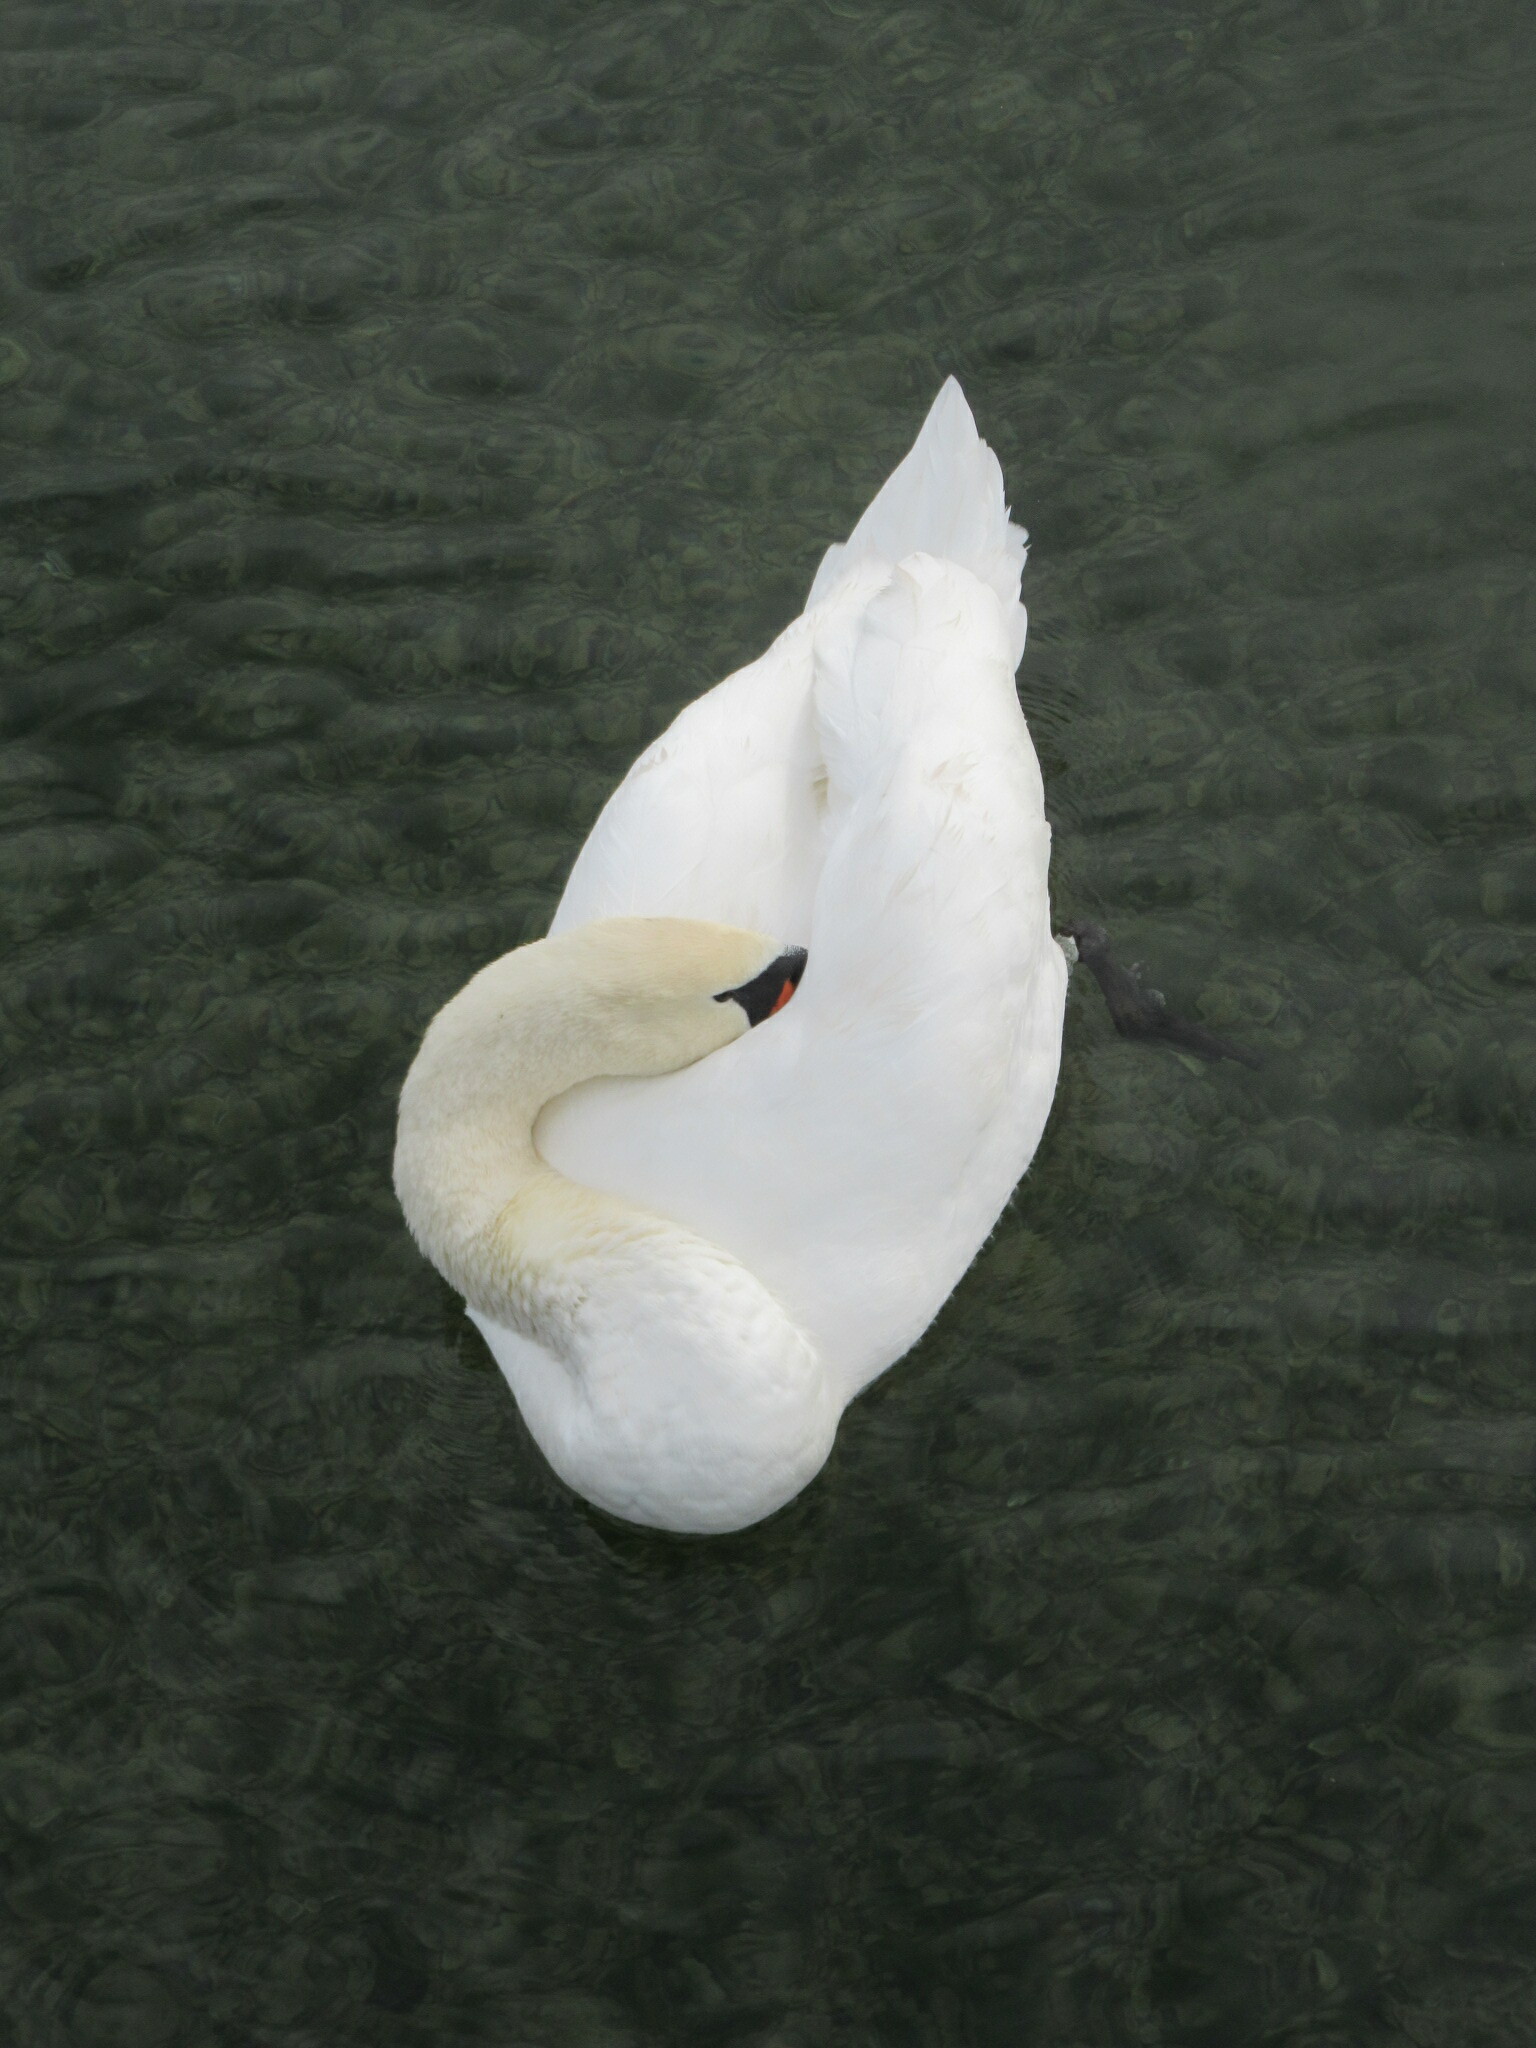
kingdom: Animalia
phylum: Chordata
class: Aves
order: Anseriformes
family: Anatidae
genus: Cygnus
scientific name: Cygnus olor
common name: Mute swan
